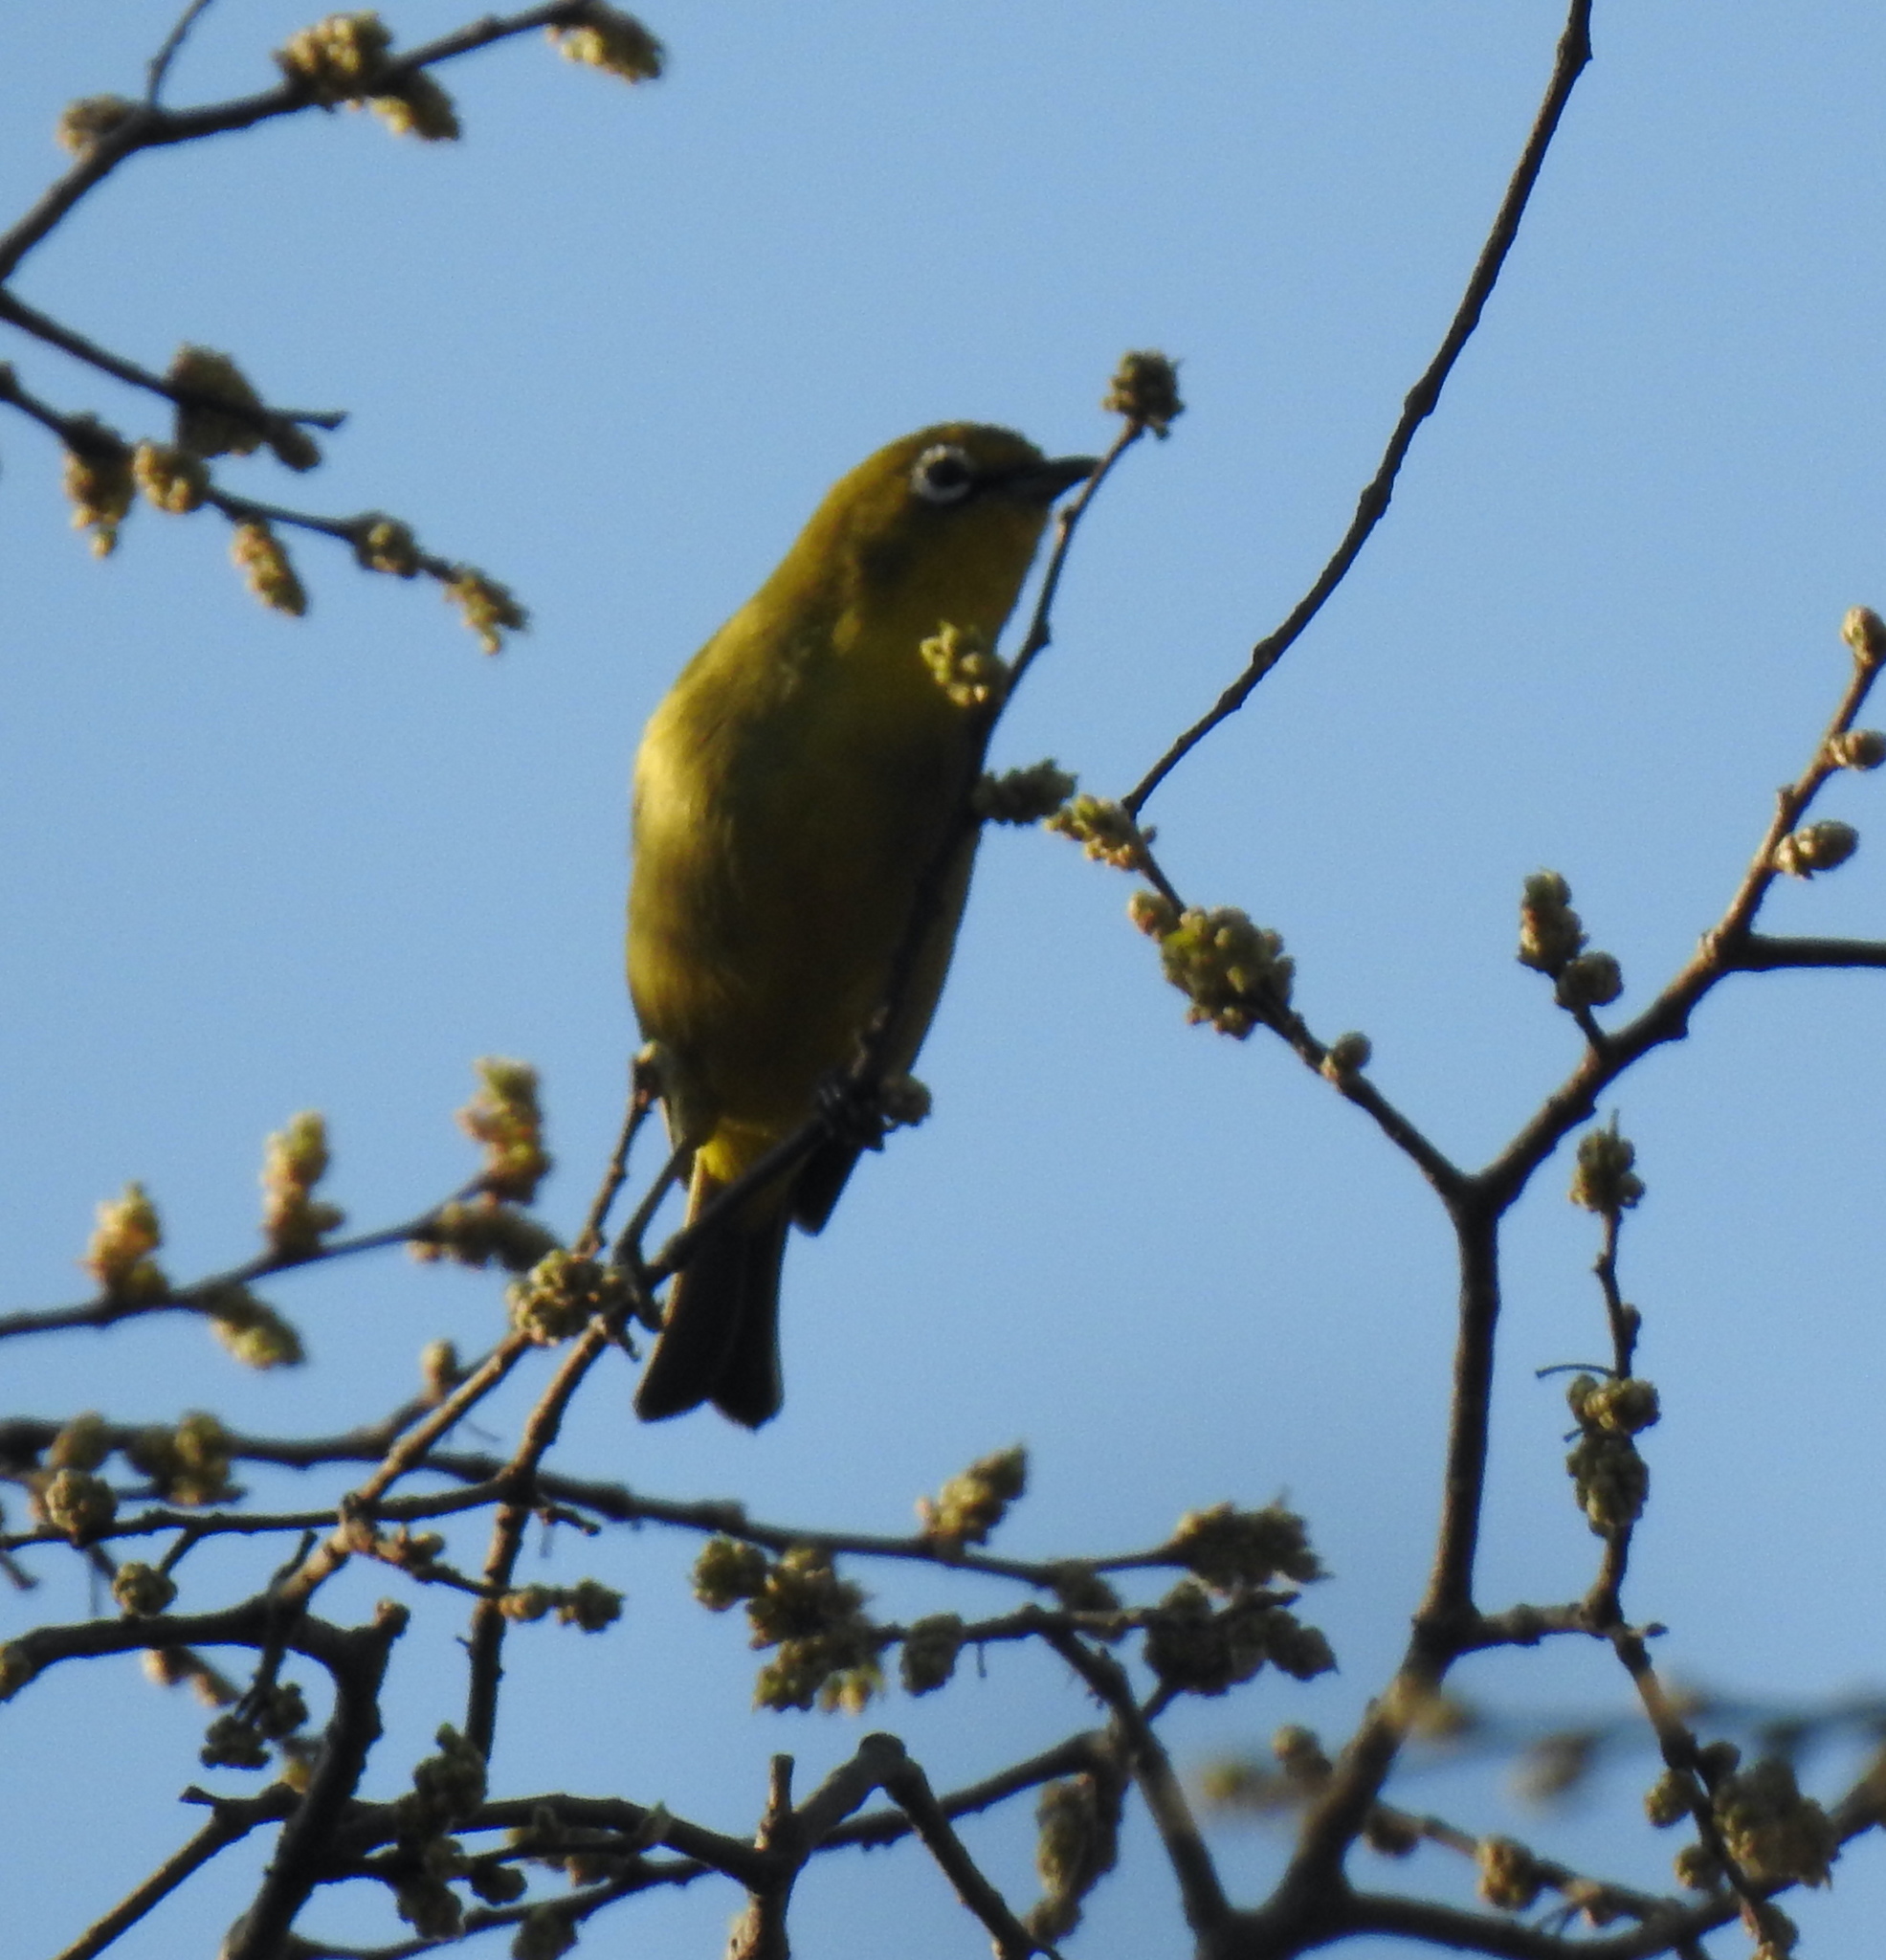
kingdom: Animalia
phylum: Chordata
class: Aves
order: Passeriformes
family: Zosteropidae
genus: Zosterops
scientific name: Zosterops virens
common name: Cape white-eye
